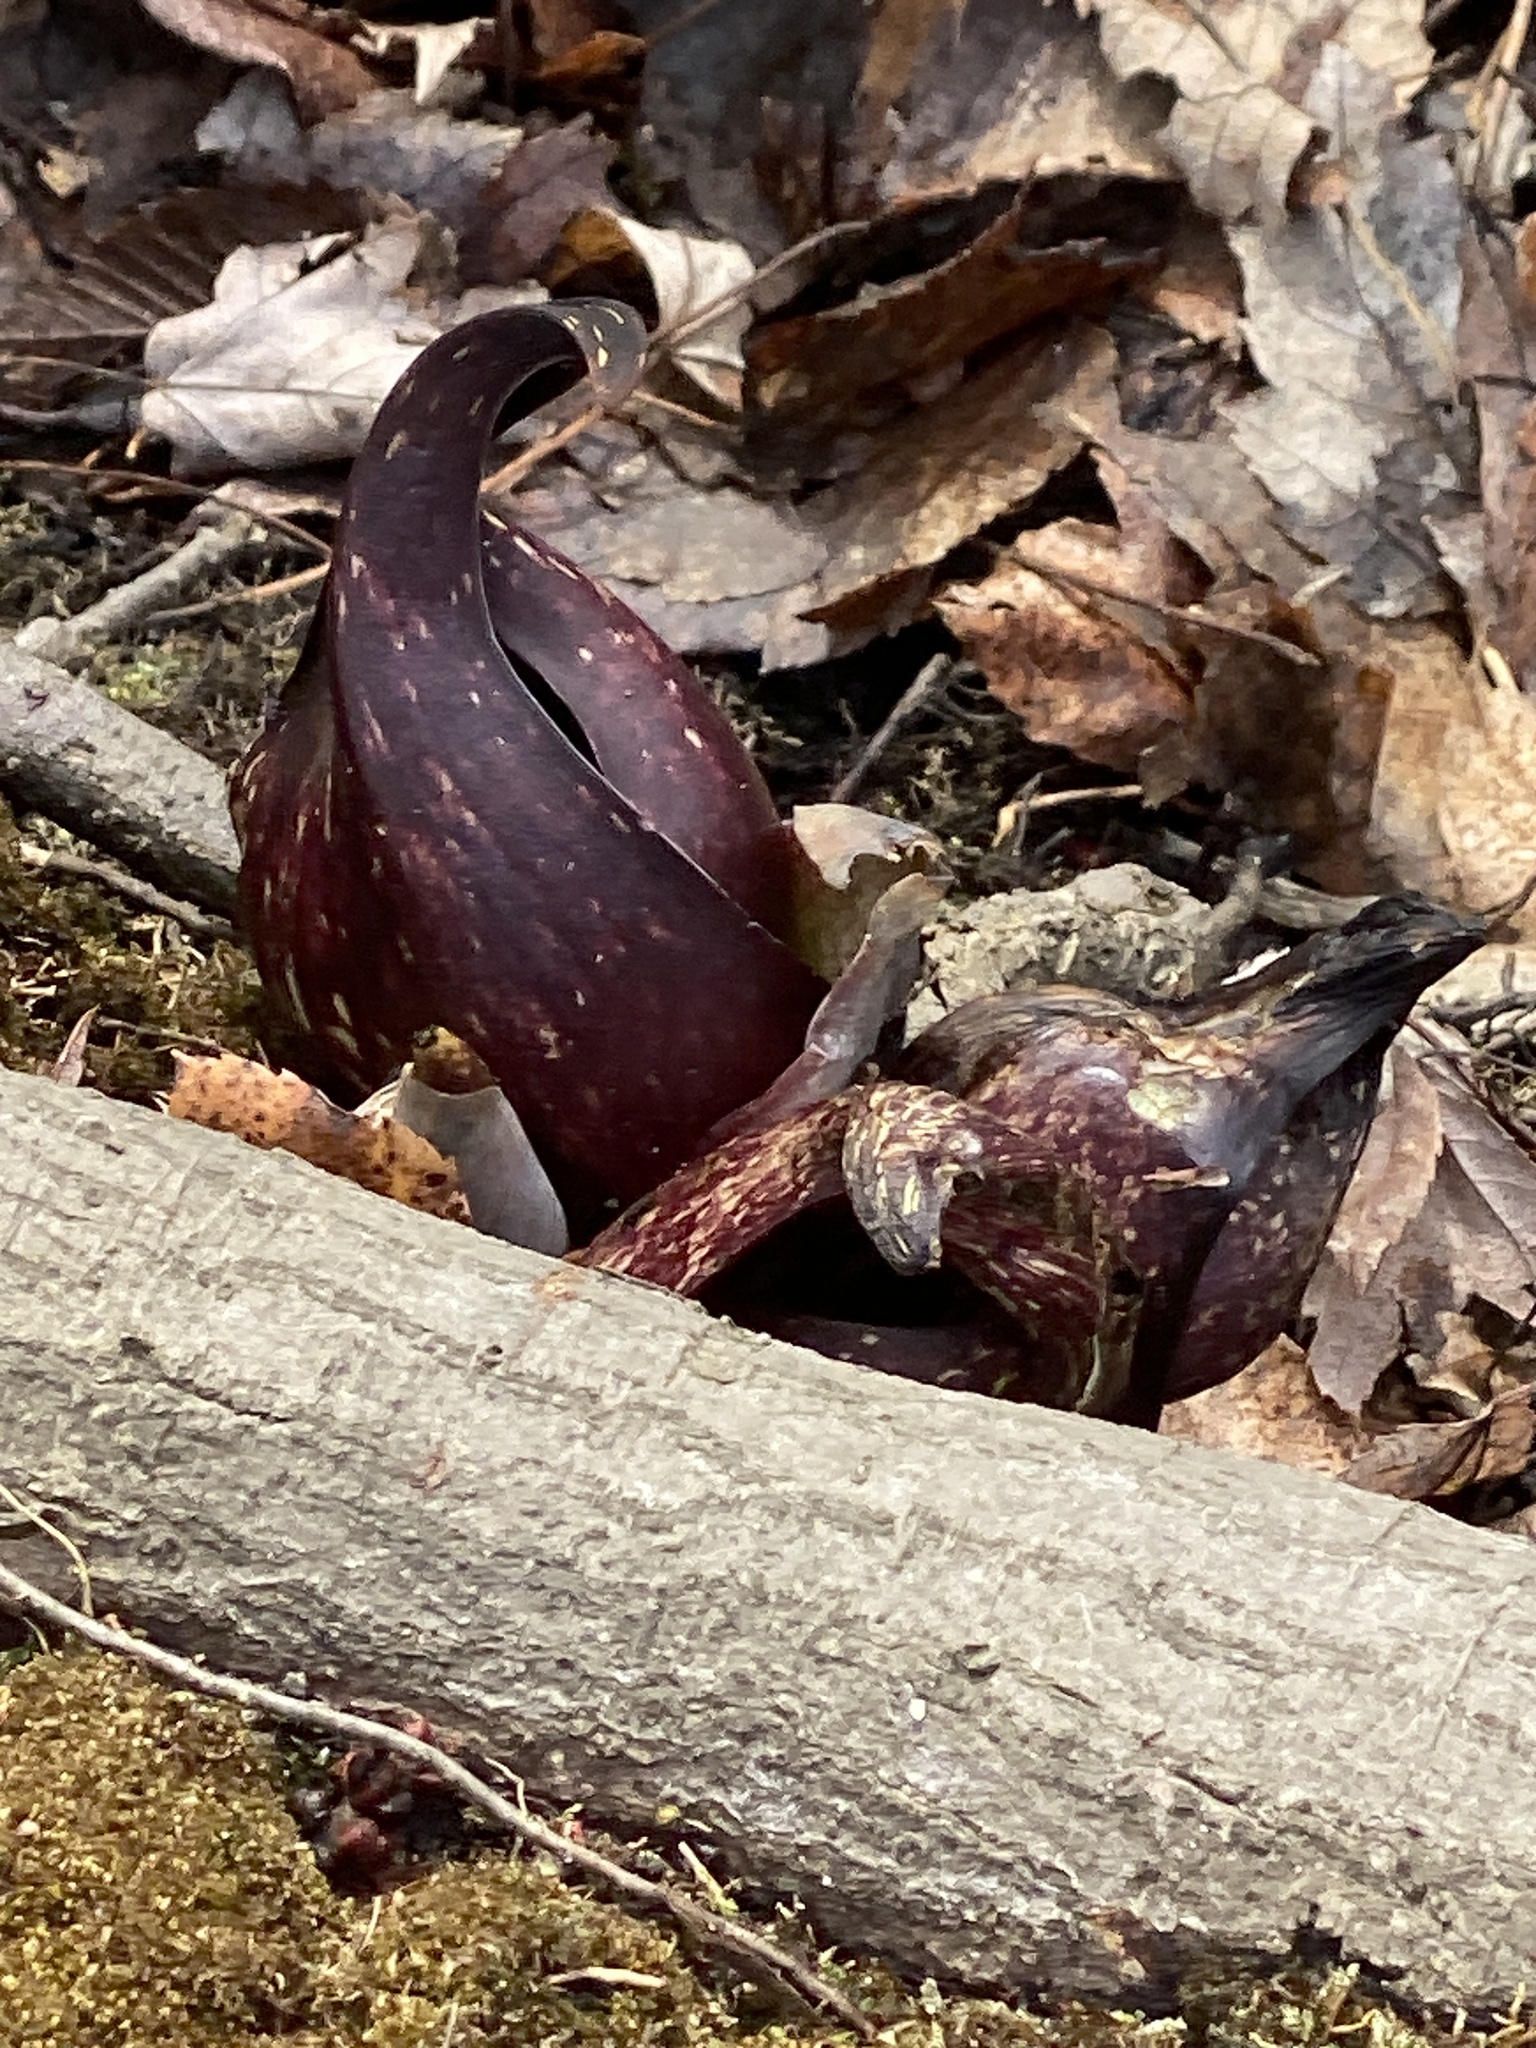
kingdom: Plantae
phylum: Tracheophyta
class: Liliopsida
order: Alismatales
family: Araceae
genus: Symplocarpus
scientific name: Symplocarpus foetidus
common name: Eastern skunk cabbage
